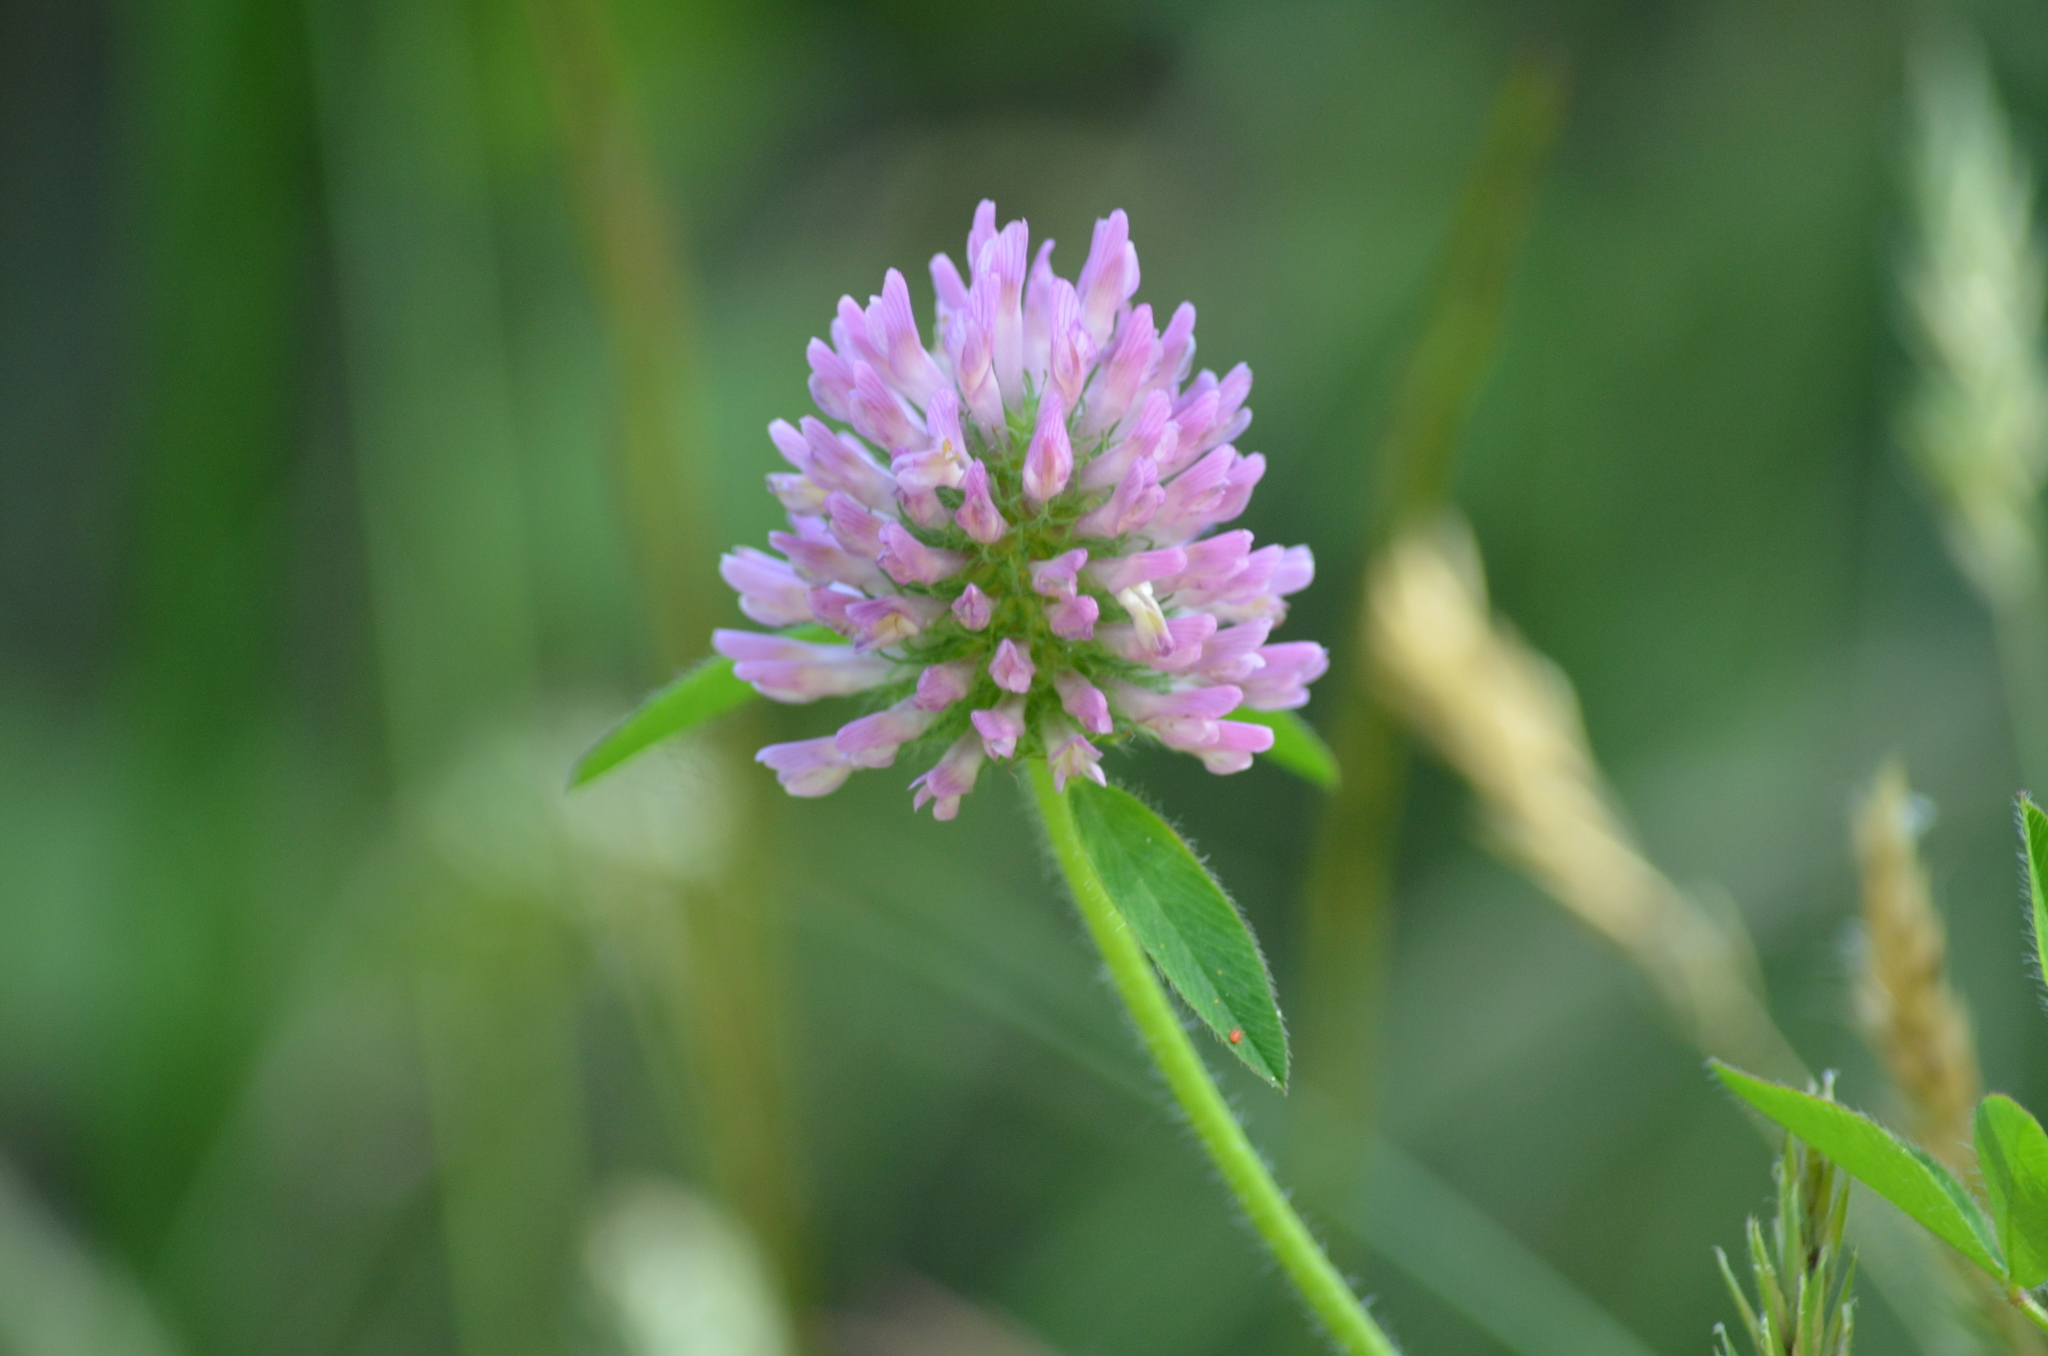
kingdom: Plantae
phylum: Tracheophyta
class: Magnoliopsida
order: Fabales
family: Fabaceae
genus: Trifolium
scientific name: Trifolium pratense
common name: Red clover
